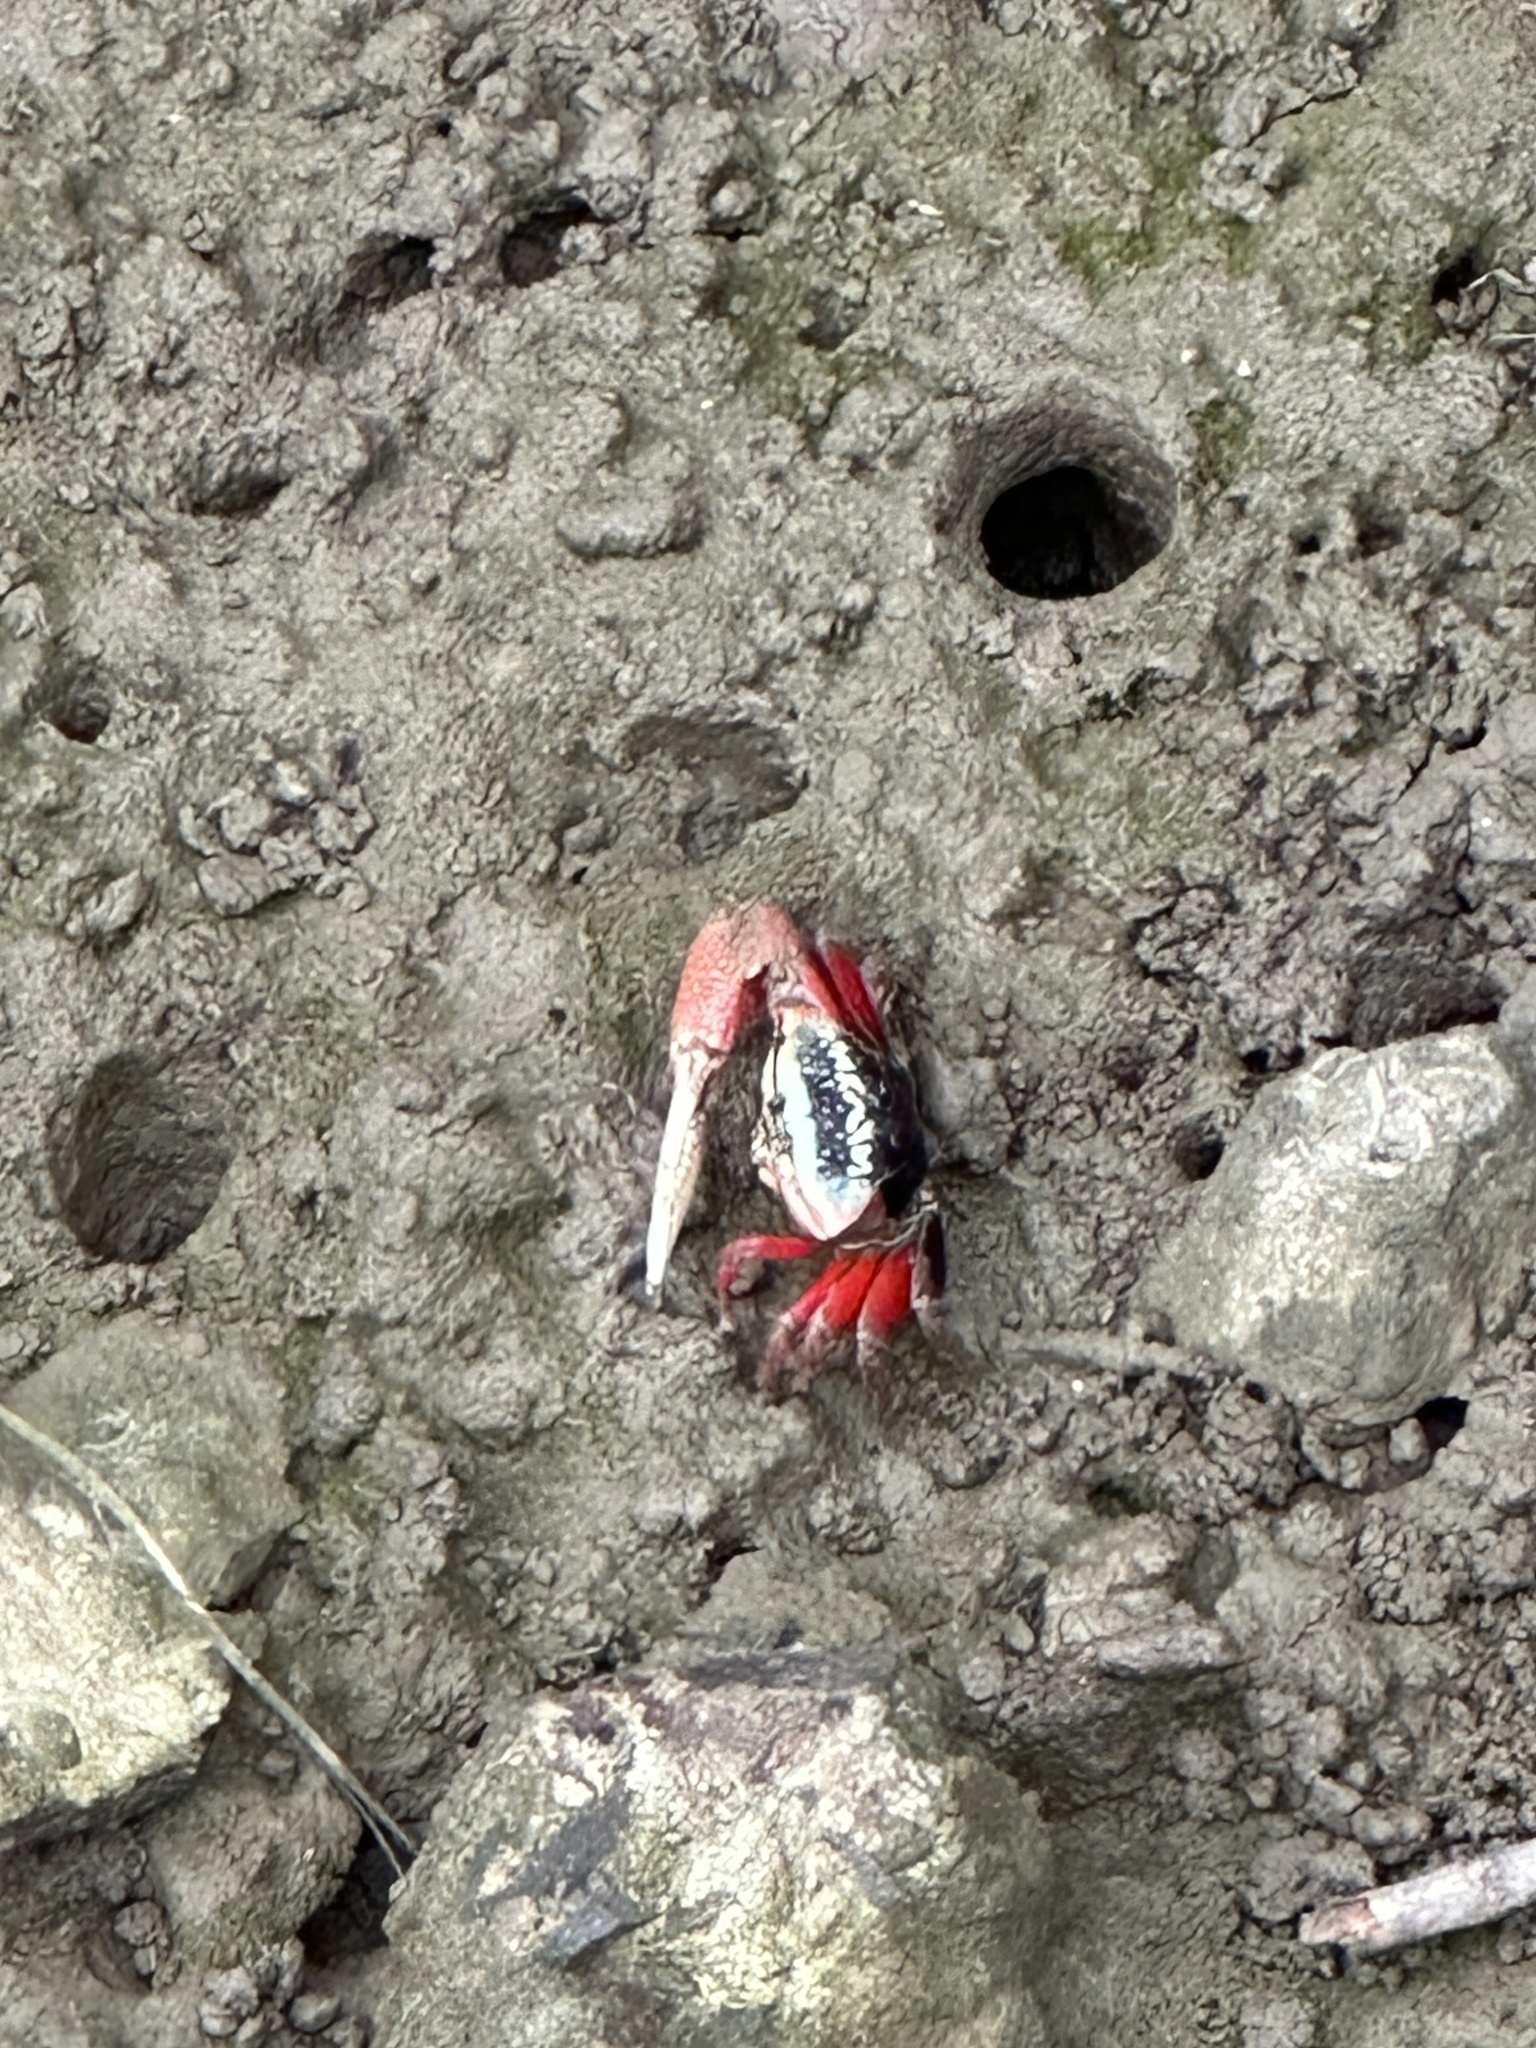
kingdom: Animalia
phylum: Arthropoda
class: Malacostraca
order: Decapoda
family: Ocypodidae
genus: Tubuca
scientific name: Tubuca arcuata
